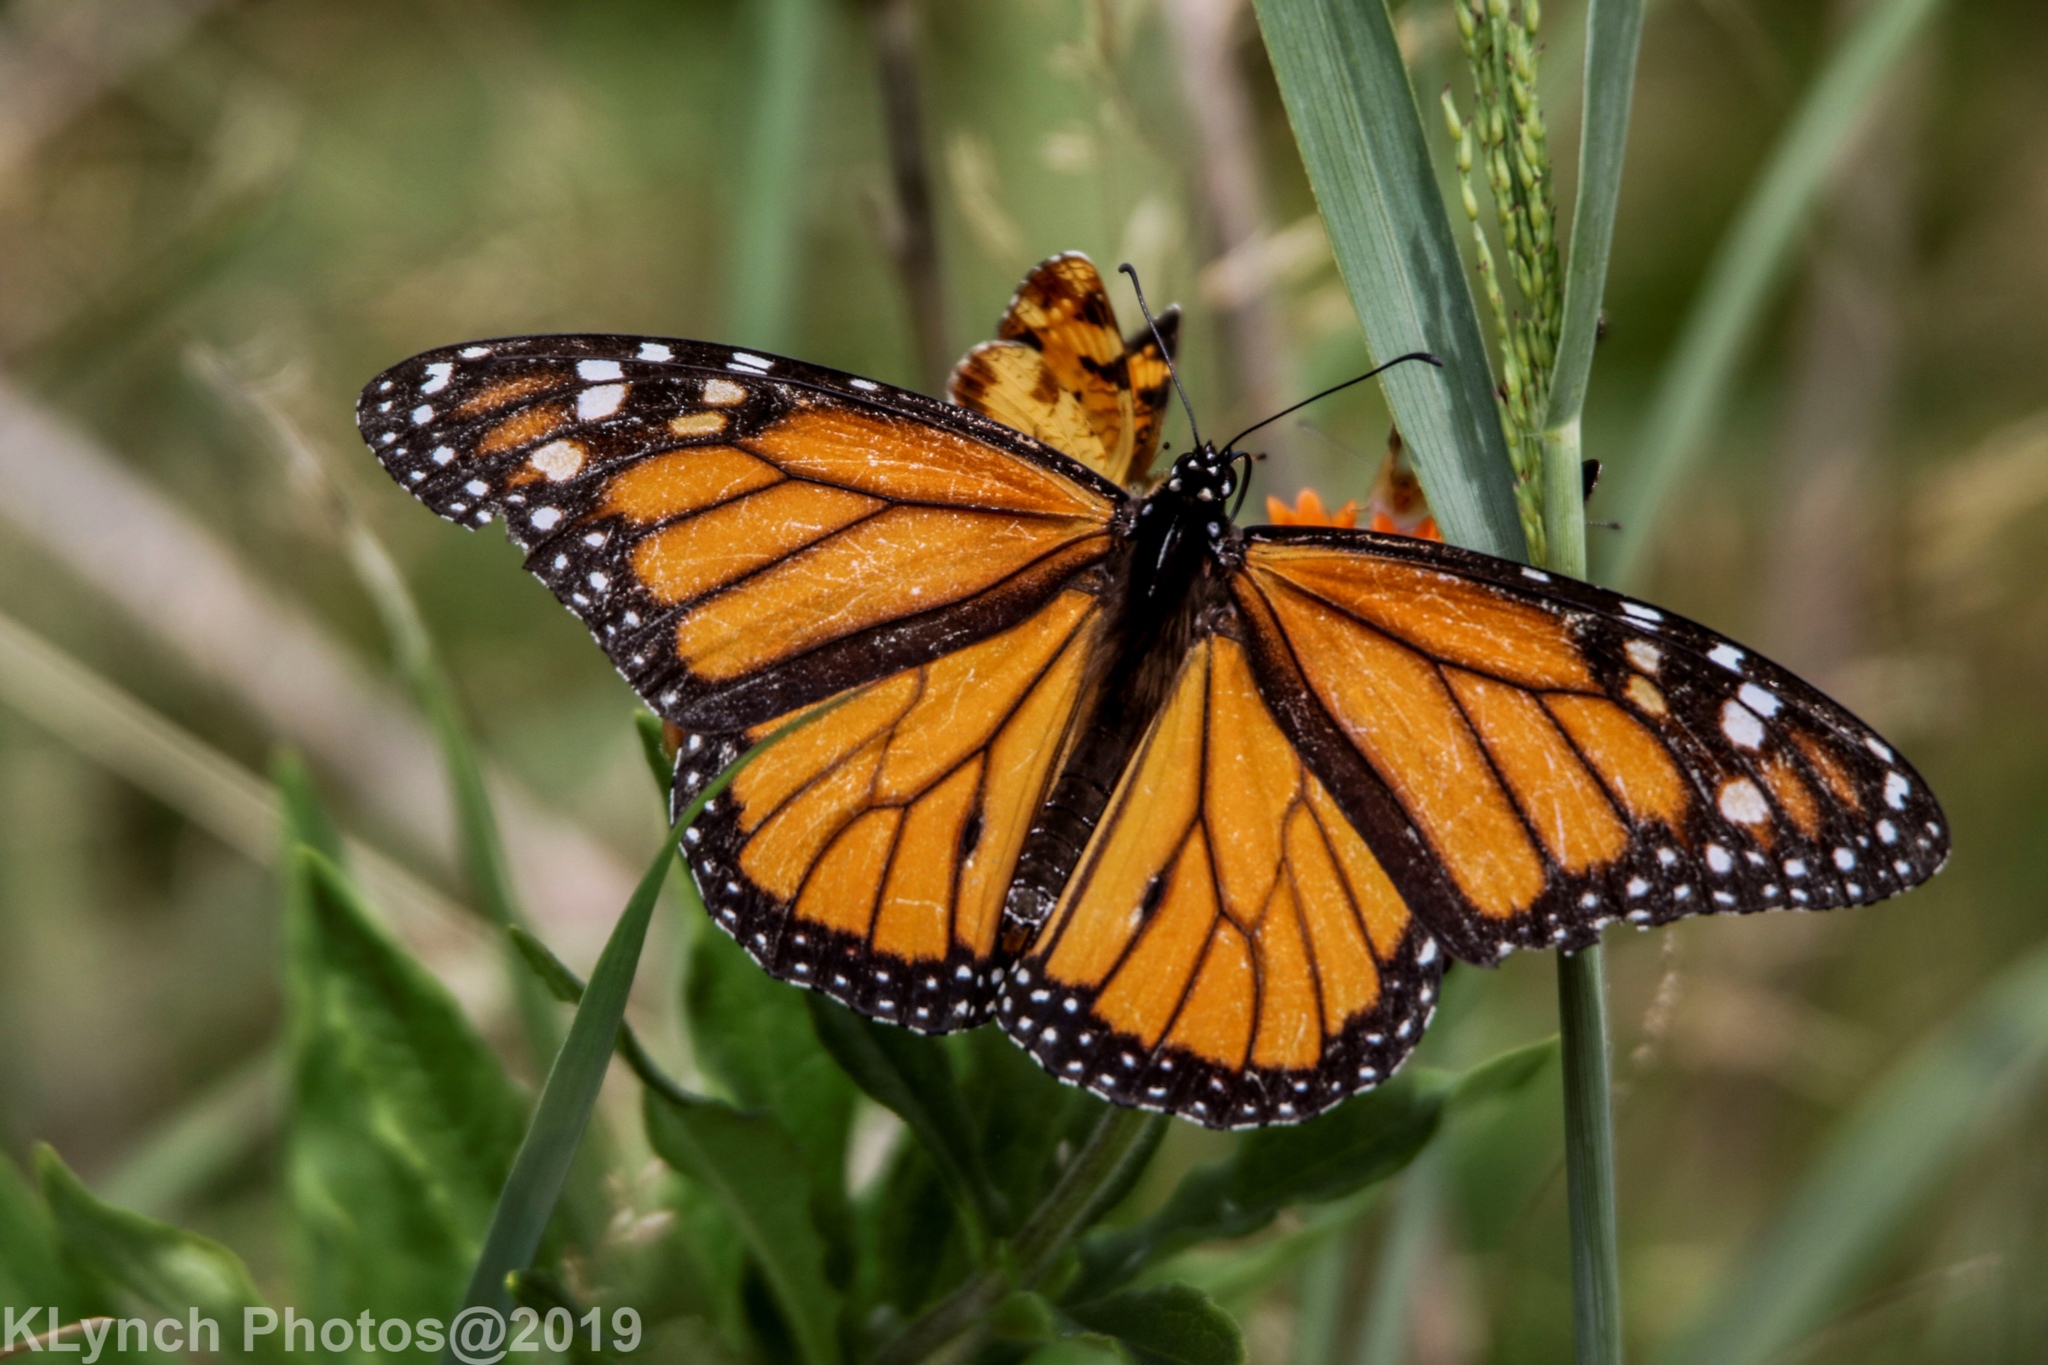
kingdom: Animalia
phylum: Arthropoda
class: Insecta
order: Lepidoptera
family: Nymphalidae
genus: Danaus
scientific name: Danaus plexippus
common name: Monarch
